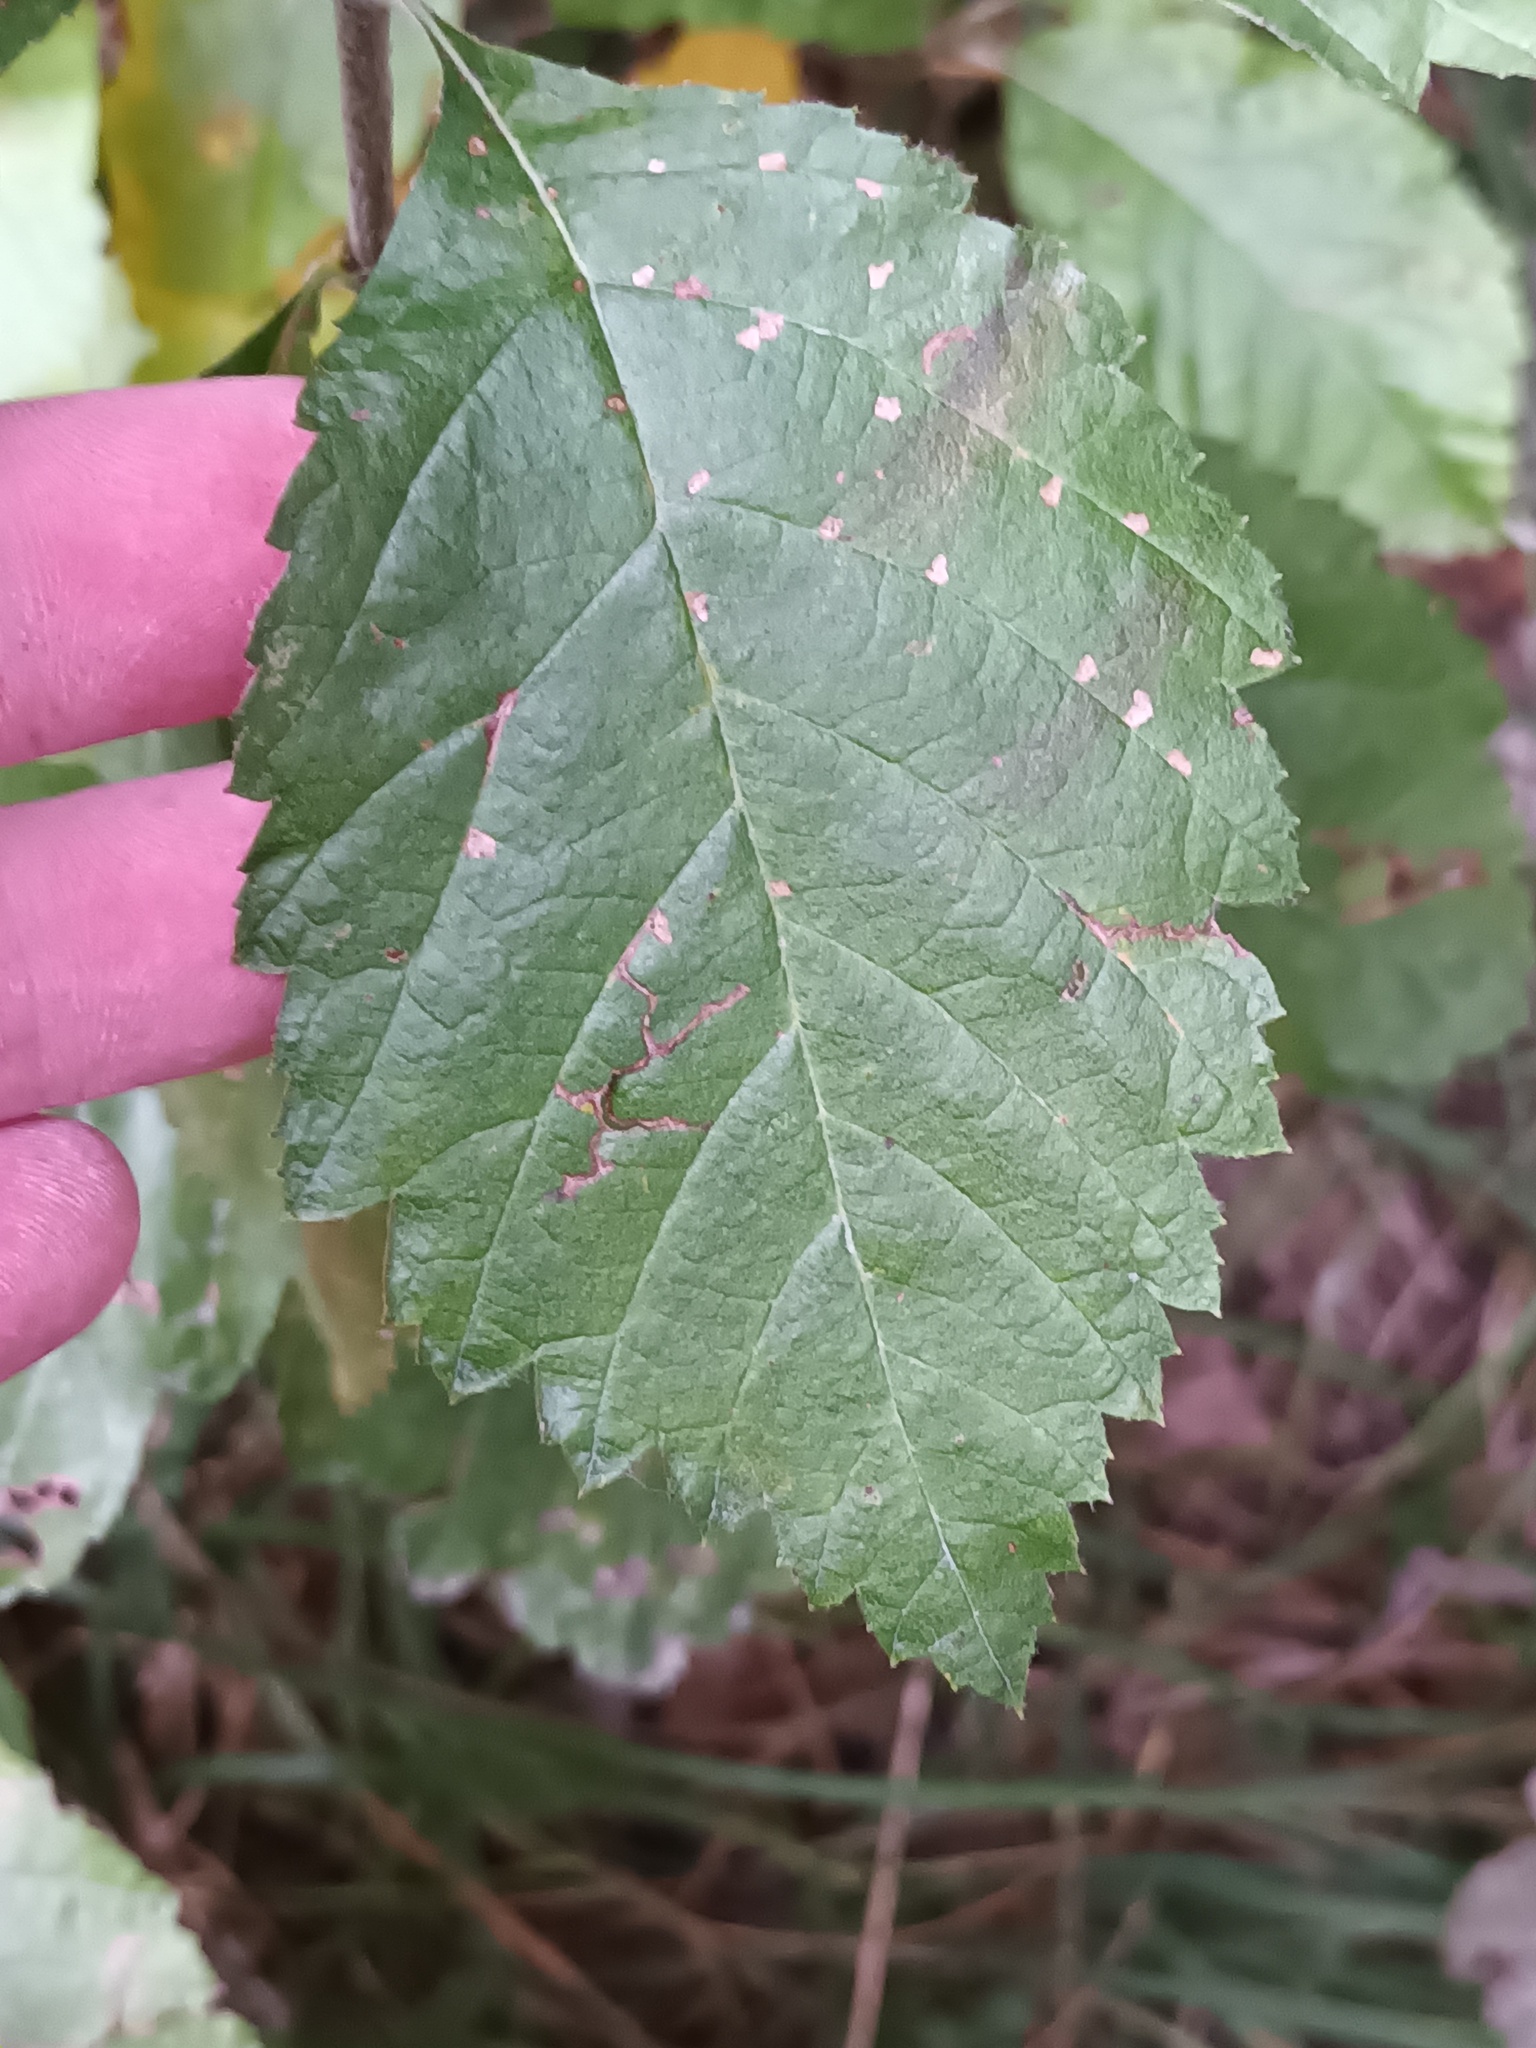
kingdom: Plantae
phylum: Tracheophyta
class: Magnoliopsida
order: Rosales
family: Rosaceae
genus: Aria
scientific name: Aria edulis
